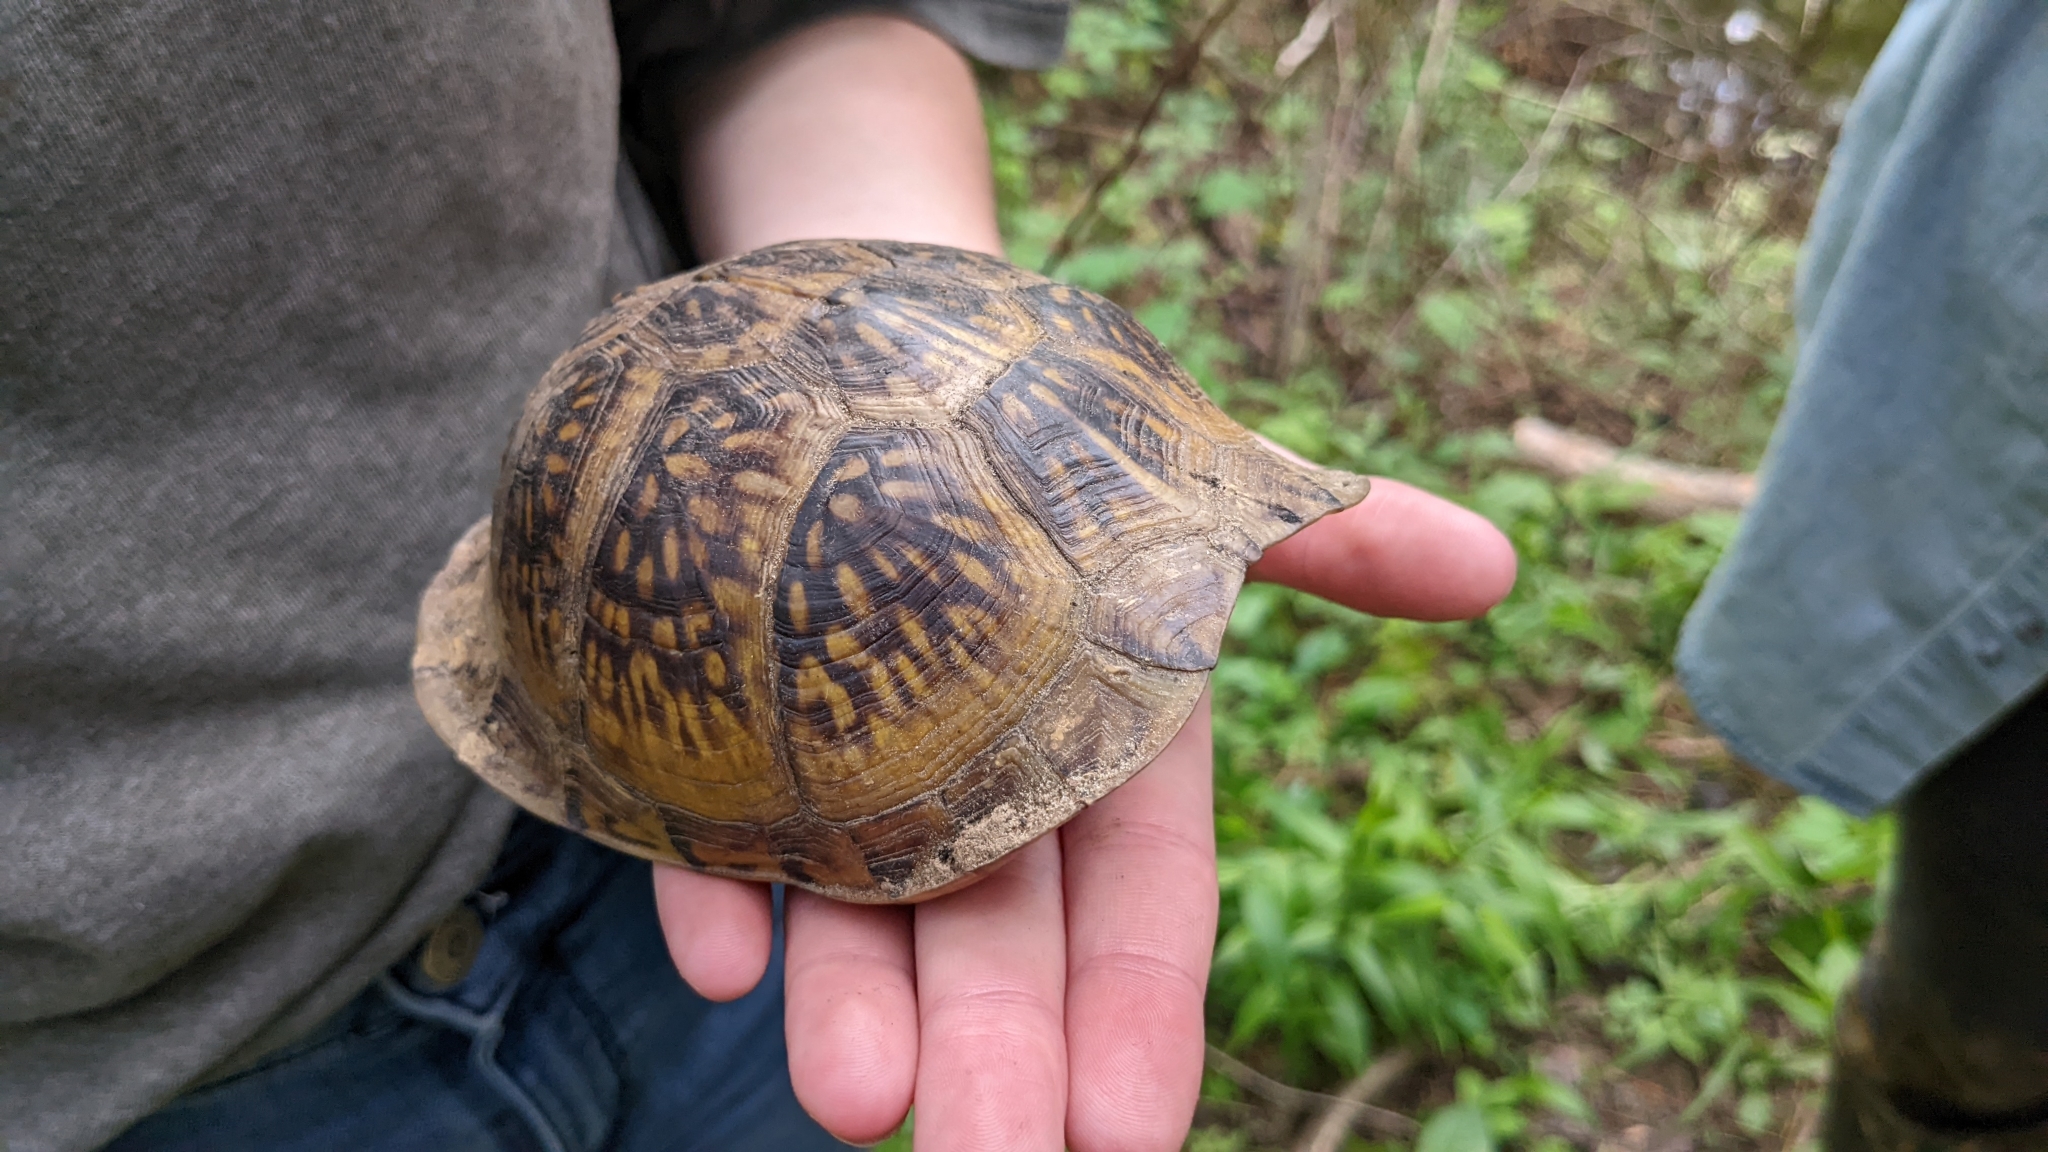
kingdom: Animalia
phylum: Chordata
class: Testudines
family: Emydidae
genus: Terrapene
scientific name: Terrapene carolina
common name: Common box turtle
